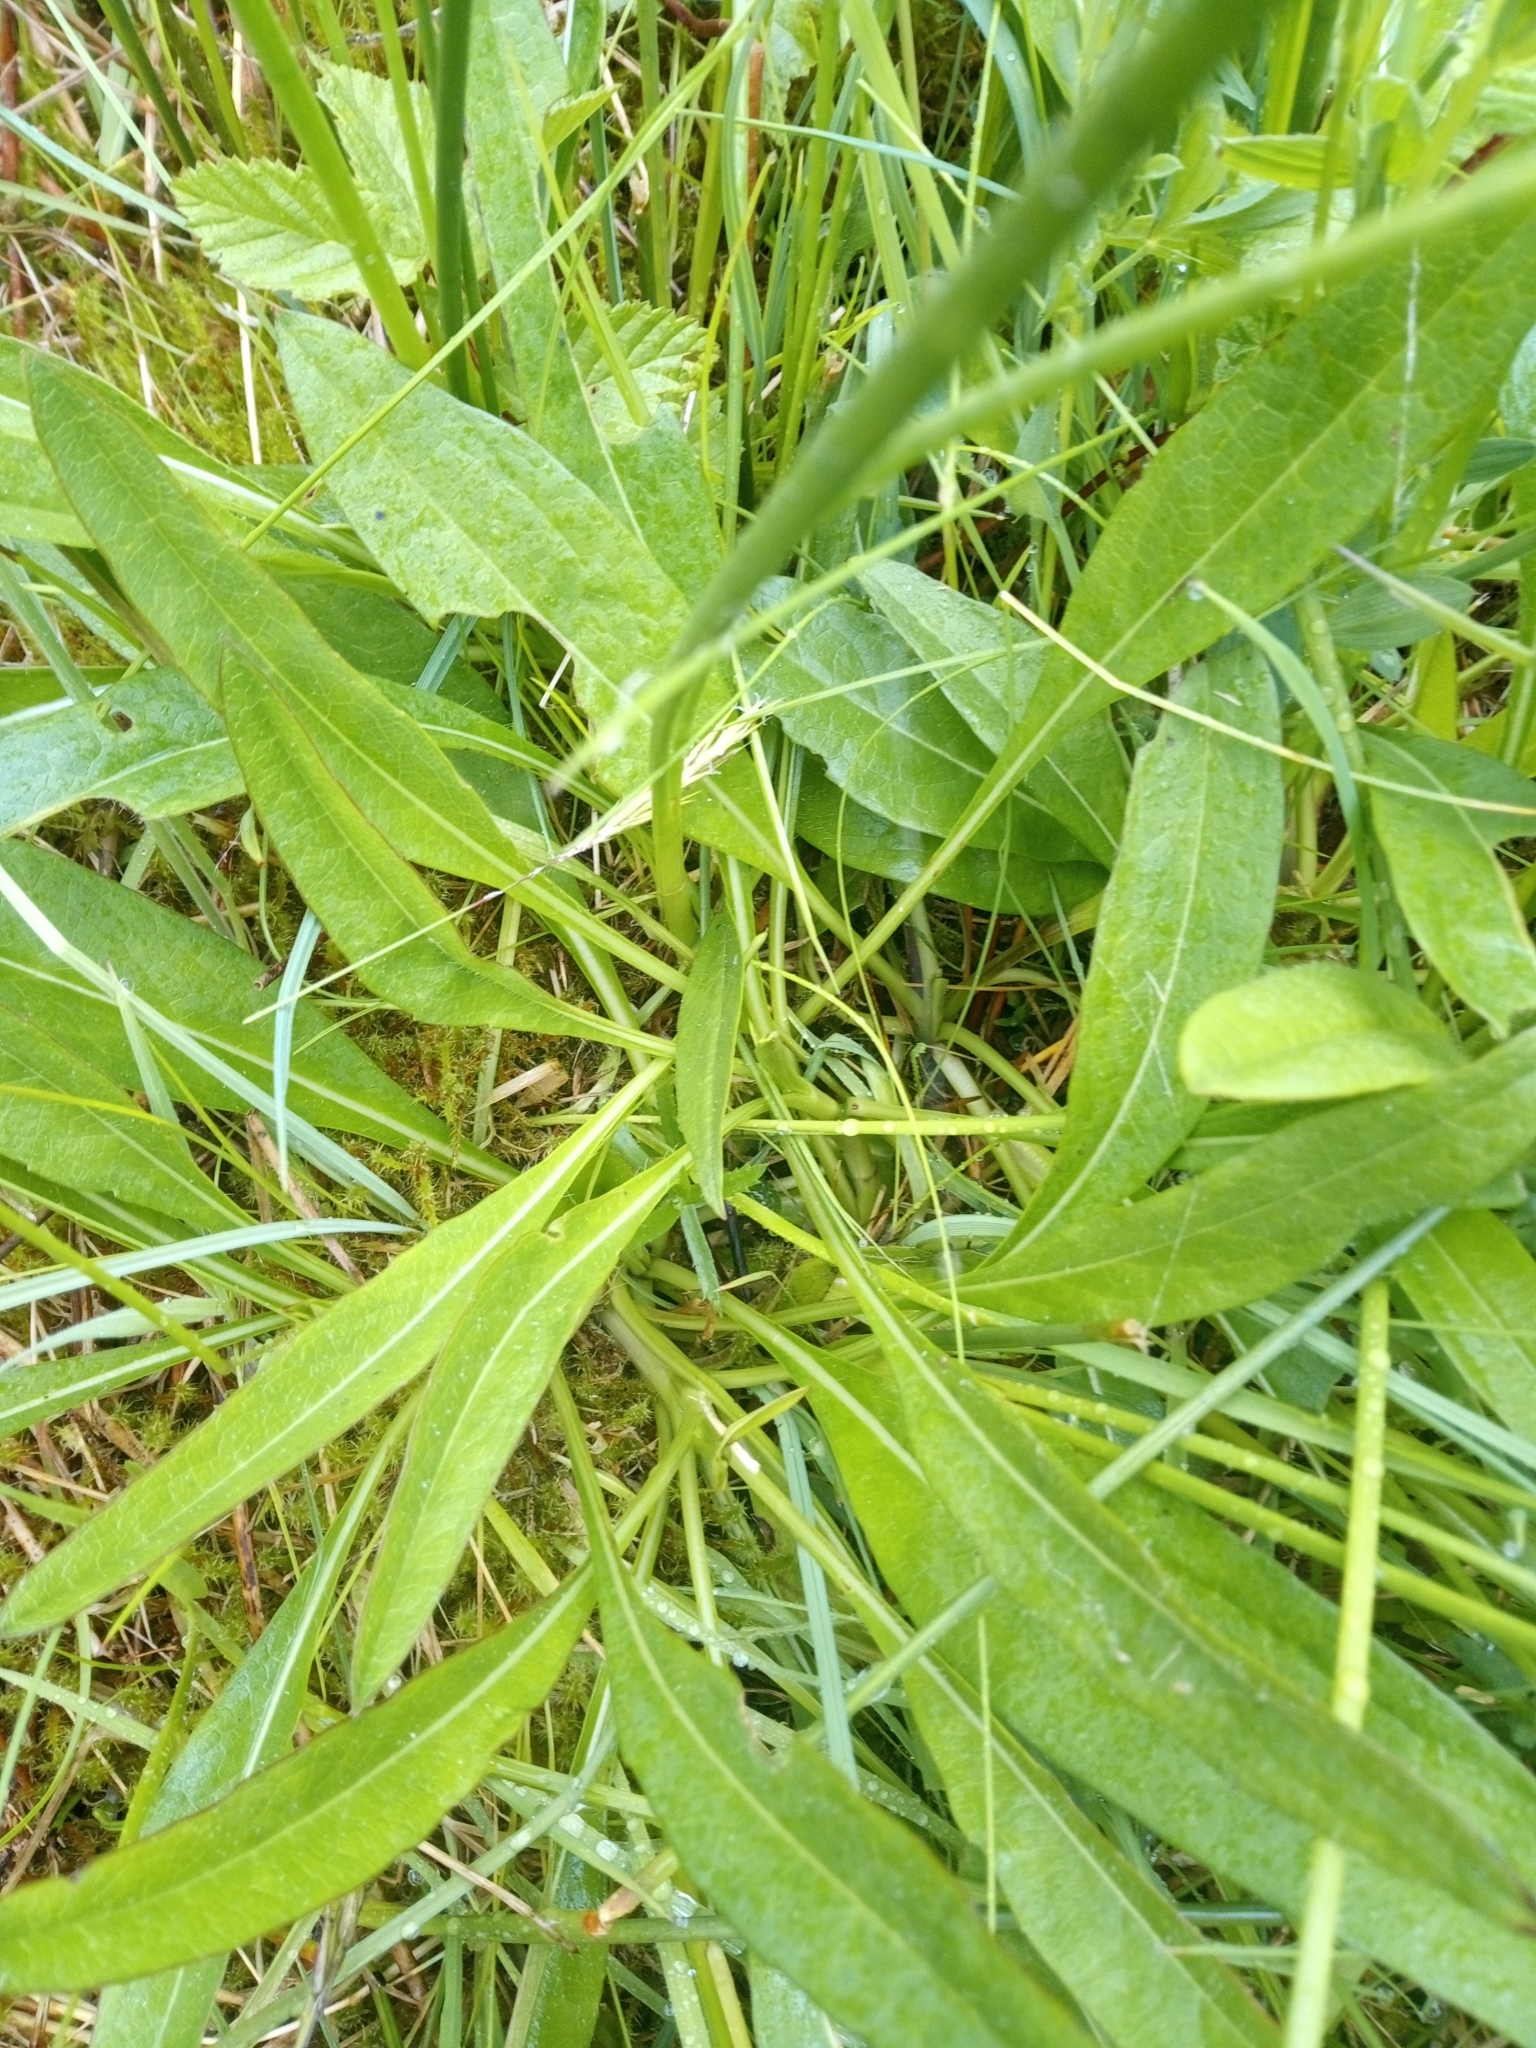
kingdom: Plantae
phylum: Tracheophyta
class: Magnoliopsida
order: Dipsacales
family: Caprifoliaceae
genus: Succisa
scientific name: Succisa pratensis
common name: Devil's-bit
